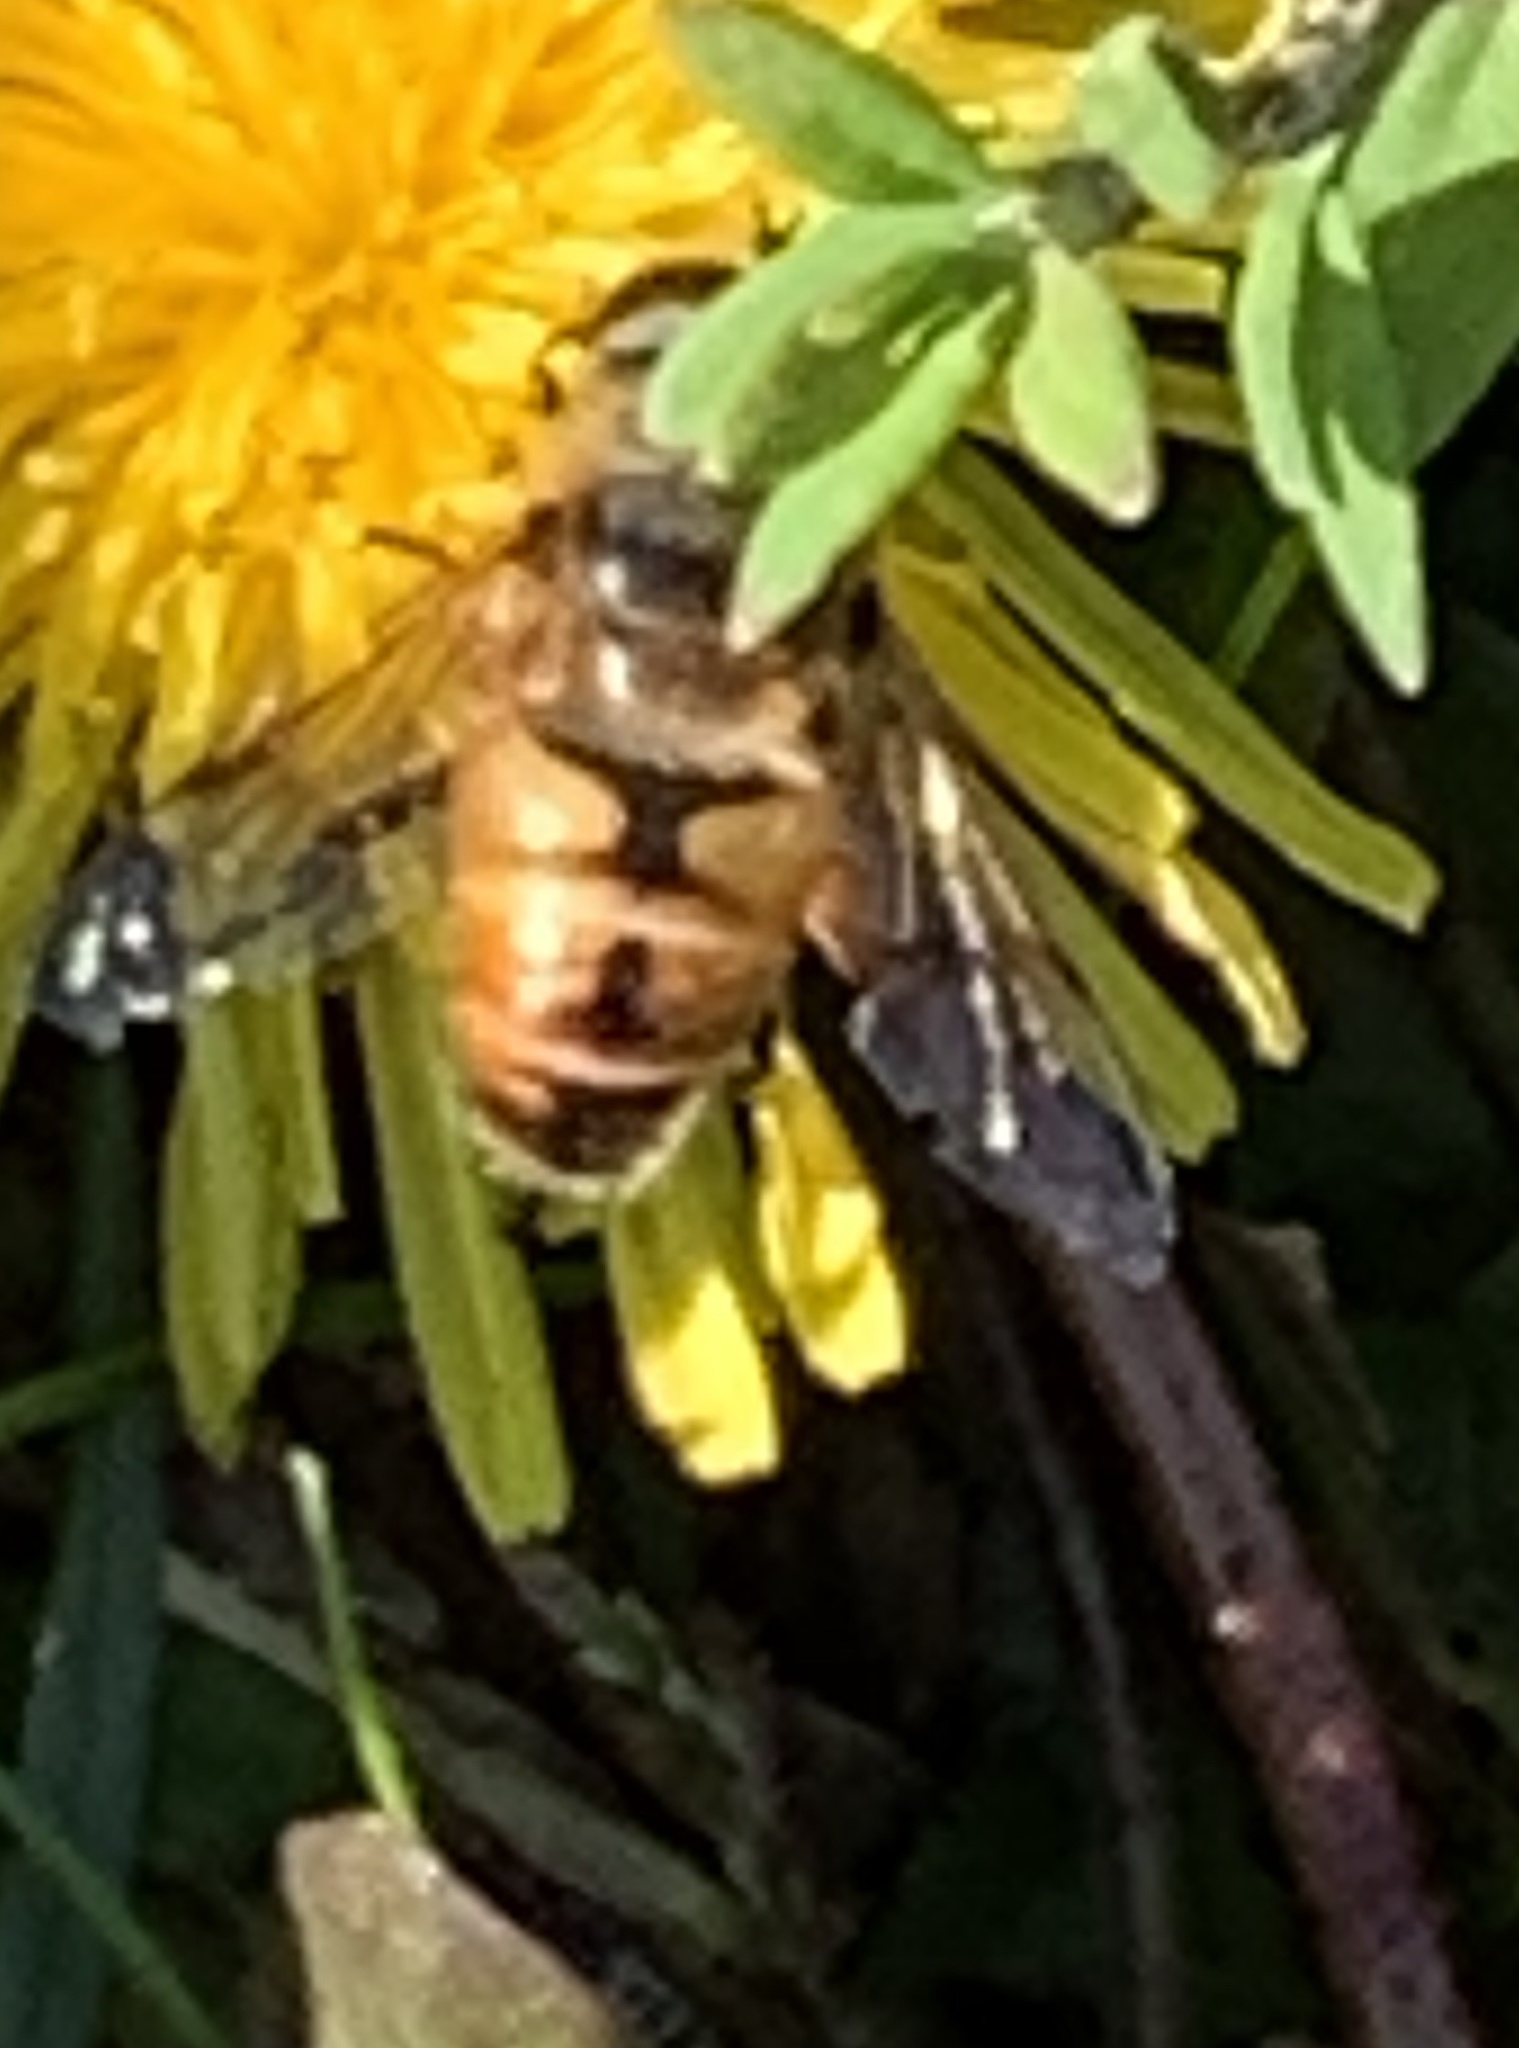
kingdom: Animalia
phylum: Arthropoda
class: Insecta
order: Diptera
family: Syrphidae
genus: Eristalis
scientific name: Eristalis tenax
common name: Drone fly
